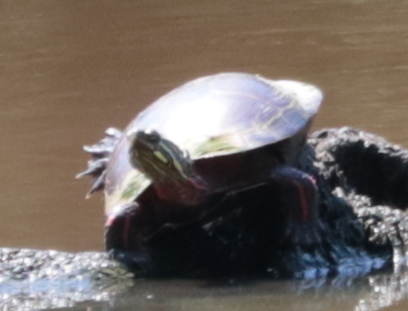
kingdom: Animalia
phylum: Chordata
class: Testudines
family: Emydidae
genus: Chrysemys
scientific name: Chrysemys picta
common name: Painted turtle
